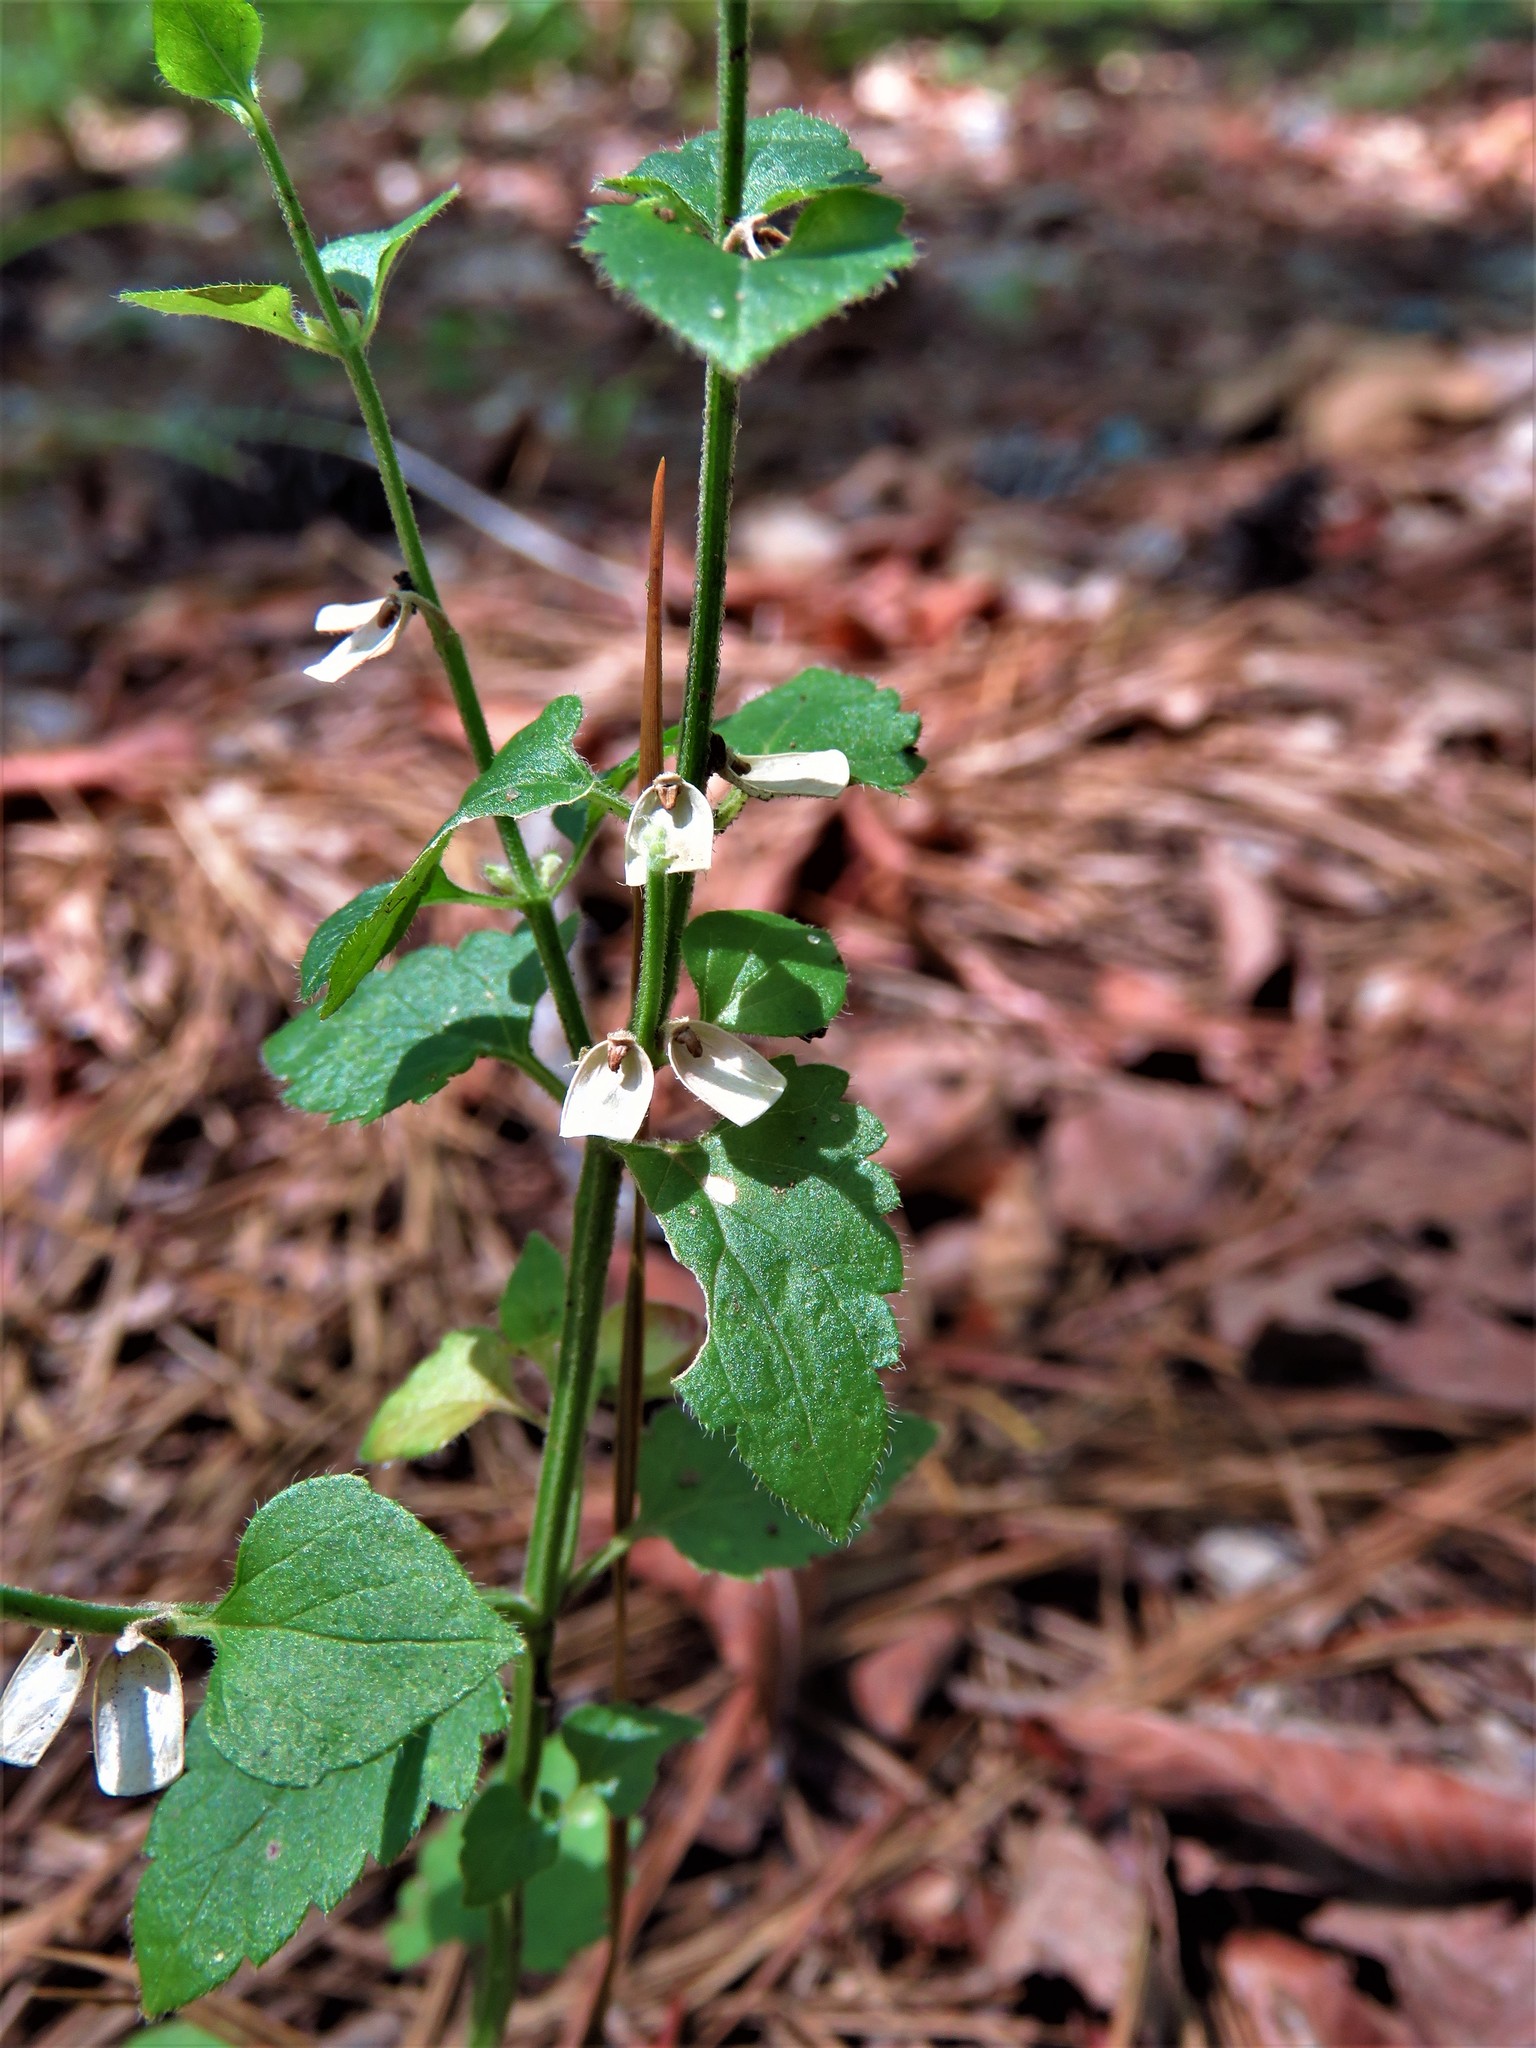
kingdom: Plantae
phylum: Tracheophyta
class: Magnoliopsida
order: Lamiales
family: Lamiaceae
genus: Scutellaria
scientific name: Scutellaria cardiophylla
